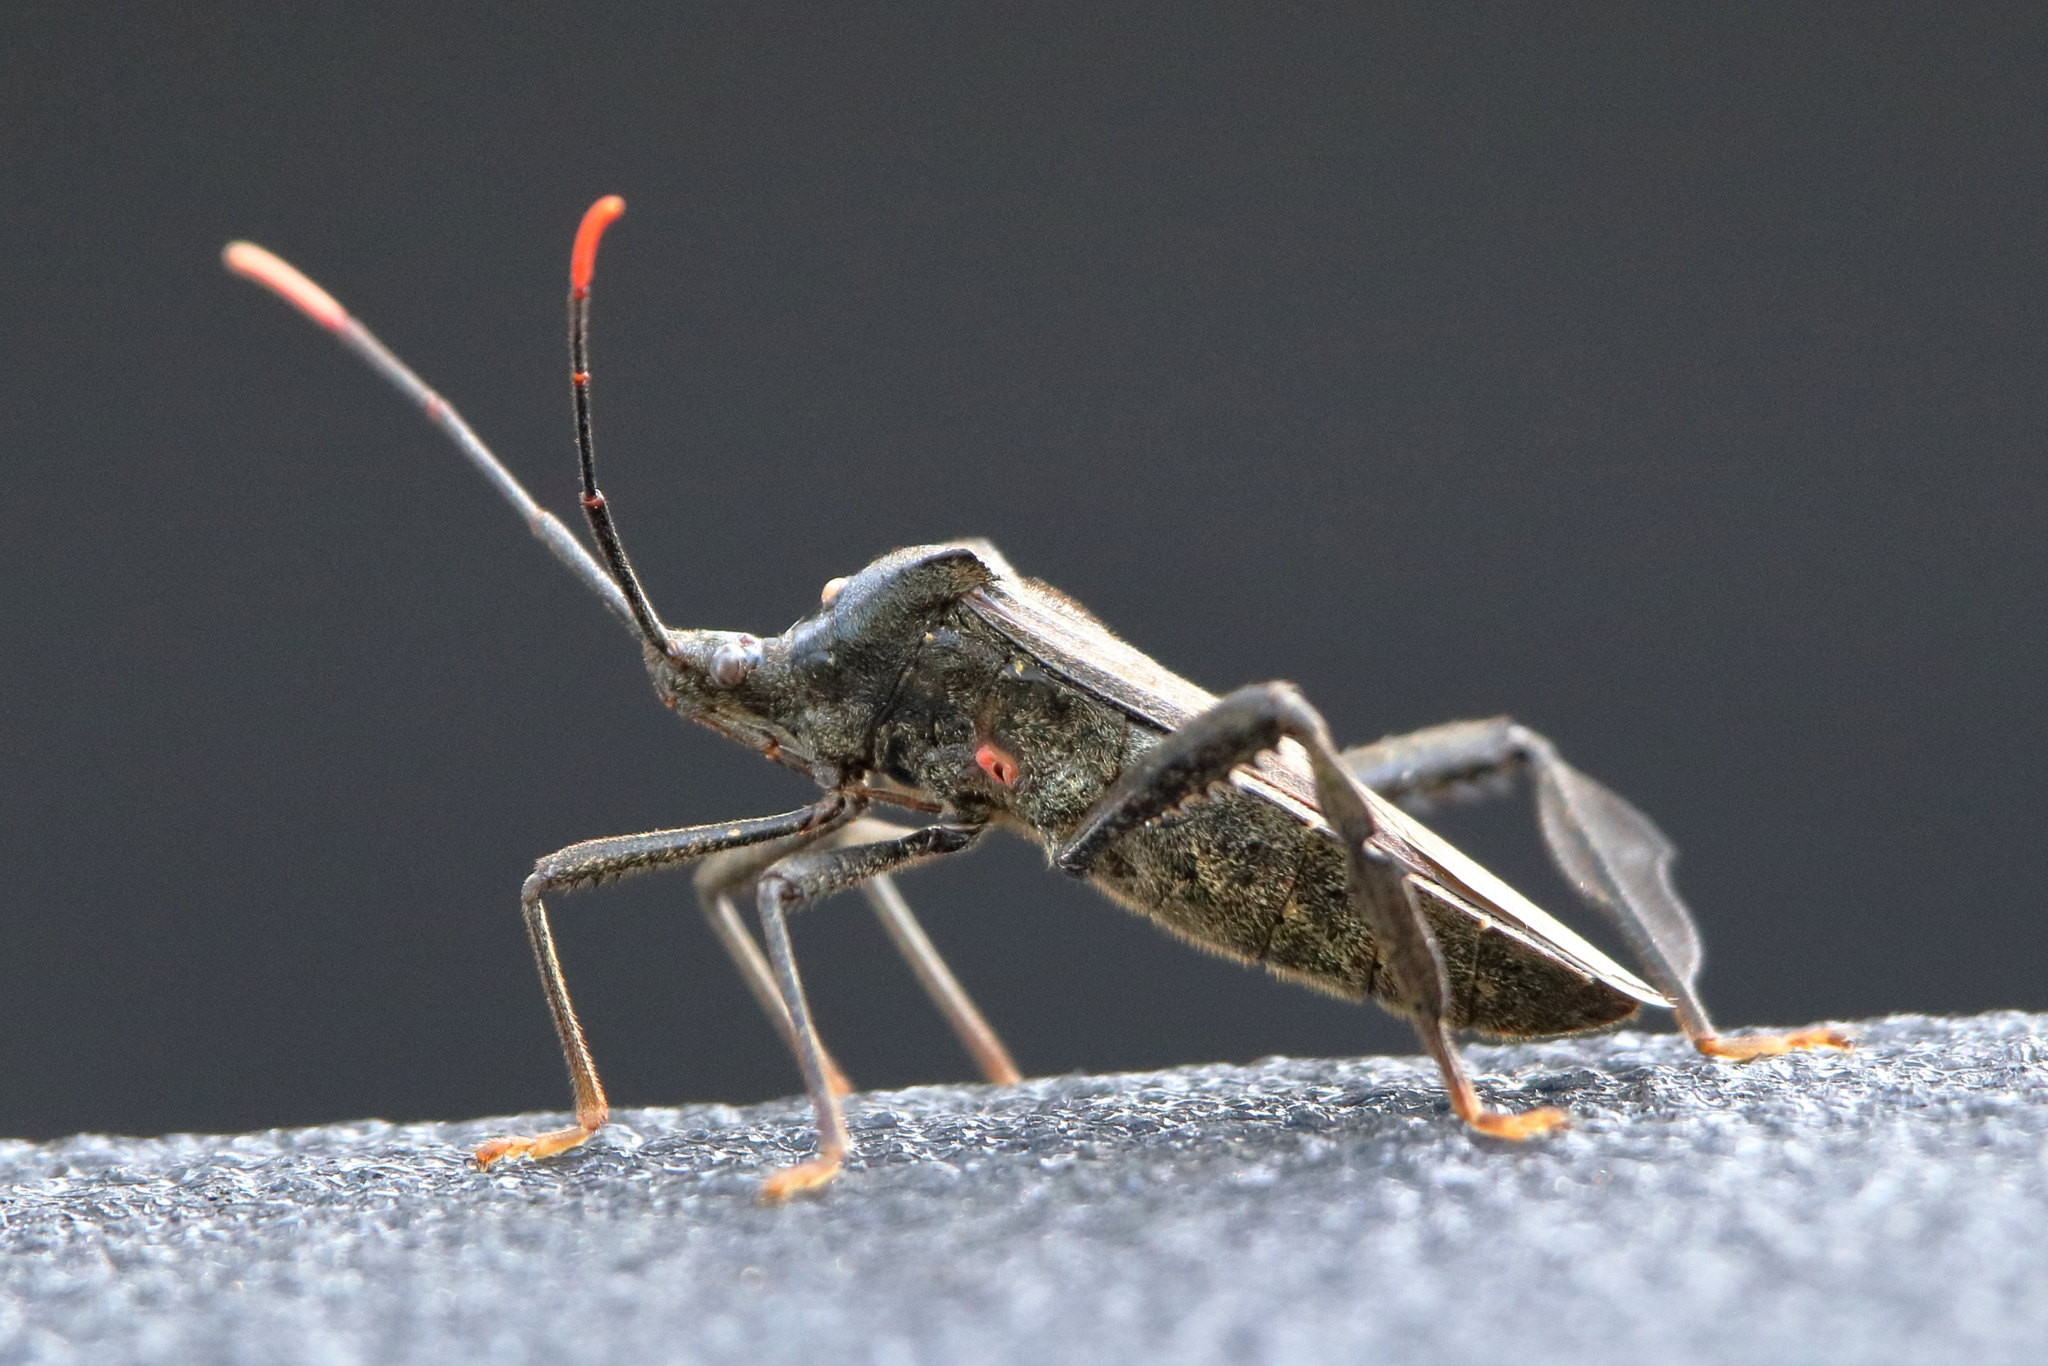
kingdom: Animalia
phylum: Arthropoda
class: Insecta
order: Hemiptera
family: Coreidae
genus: Acanthocephala
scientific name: Acanthocephala terminalis
